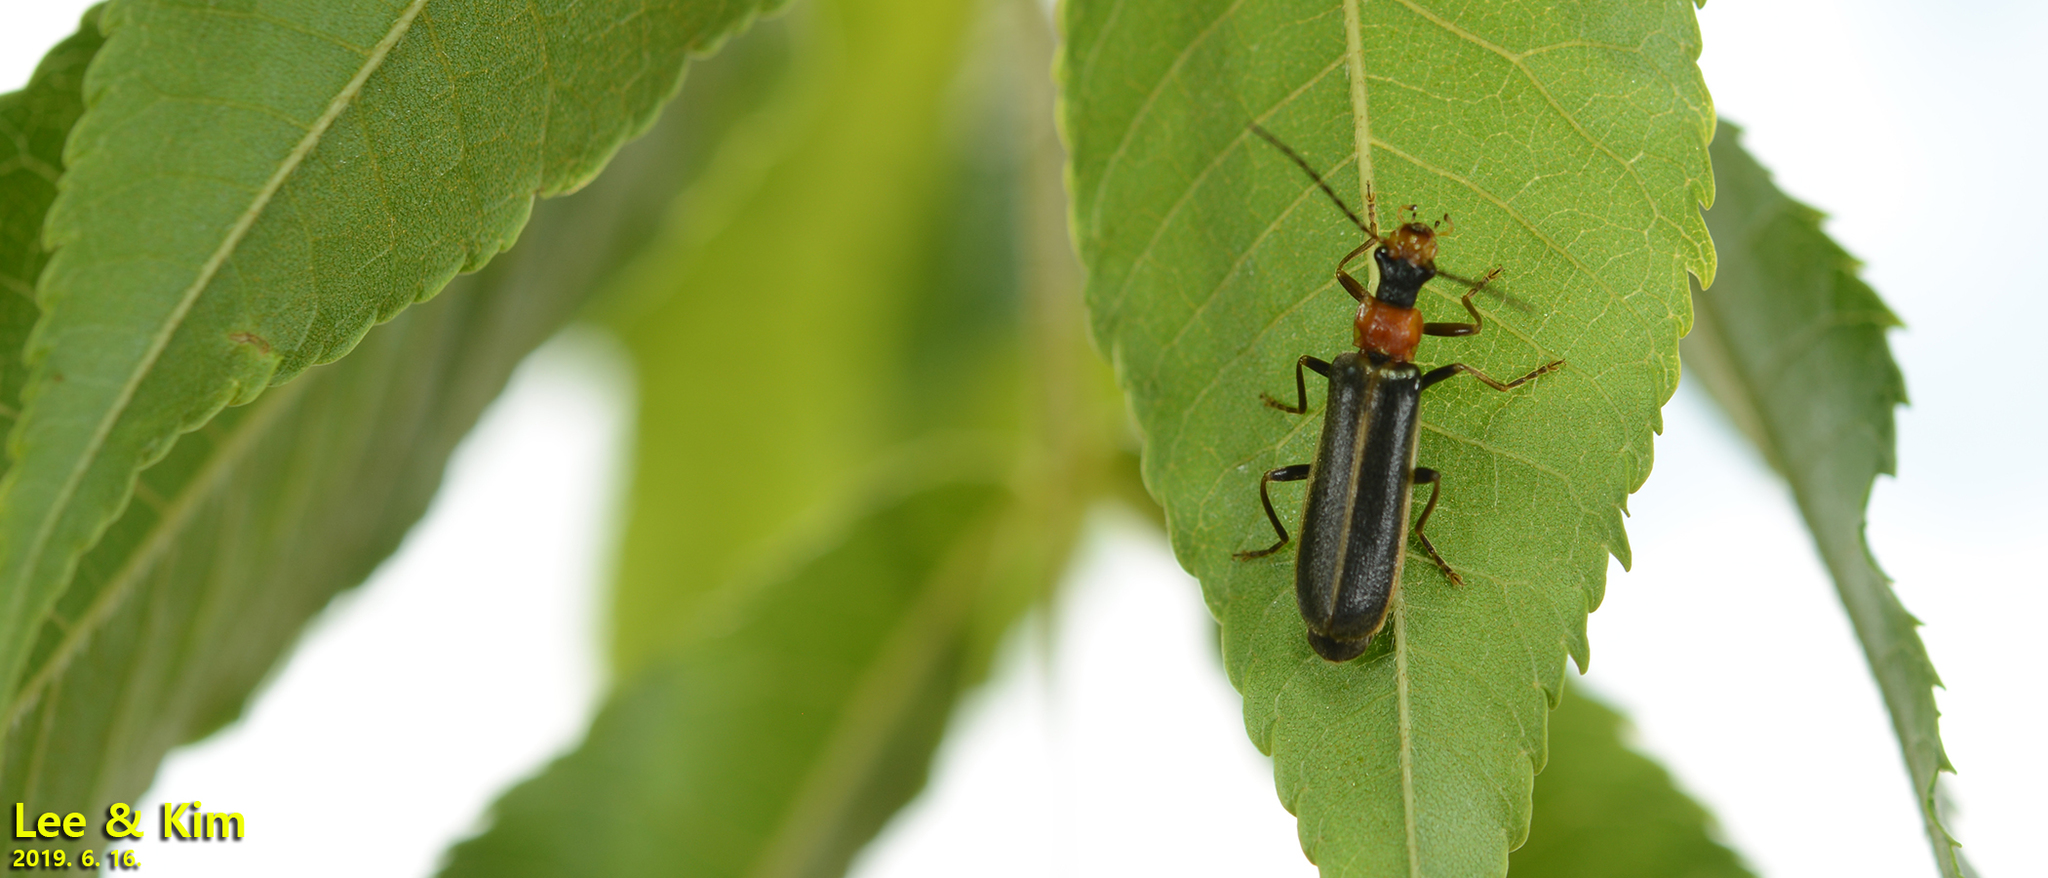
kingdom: Animalia
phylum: Arthropoda
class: Insecta
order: Coleoptera
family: Cantharidae
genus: Hatchiana
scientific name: Hatchiana glochidiatus
